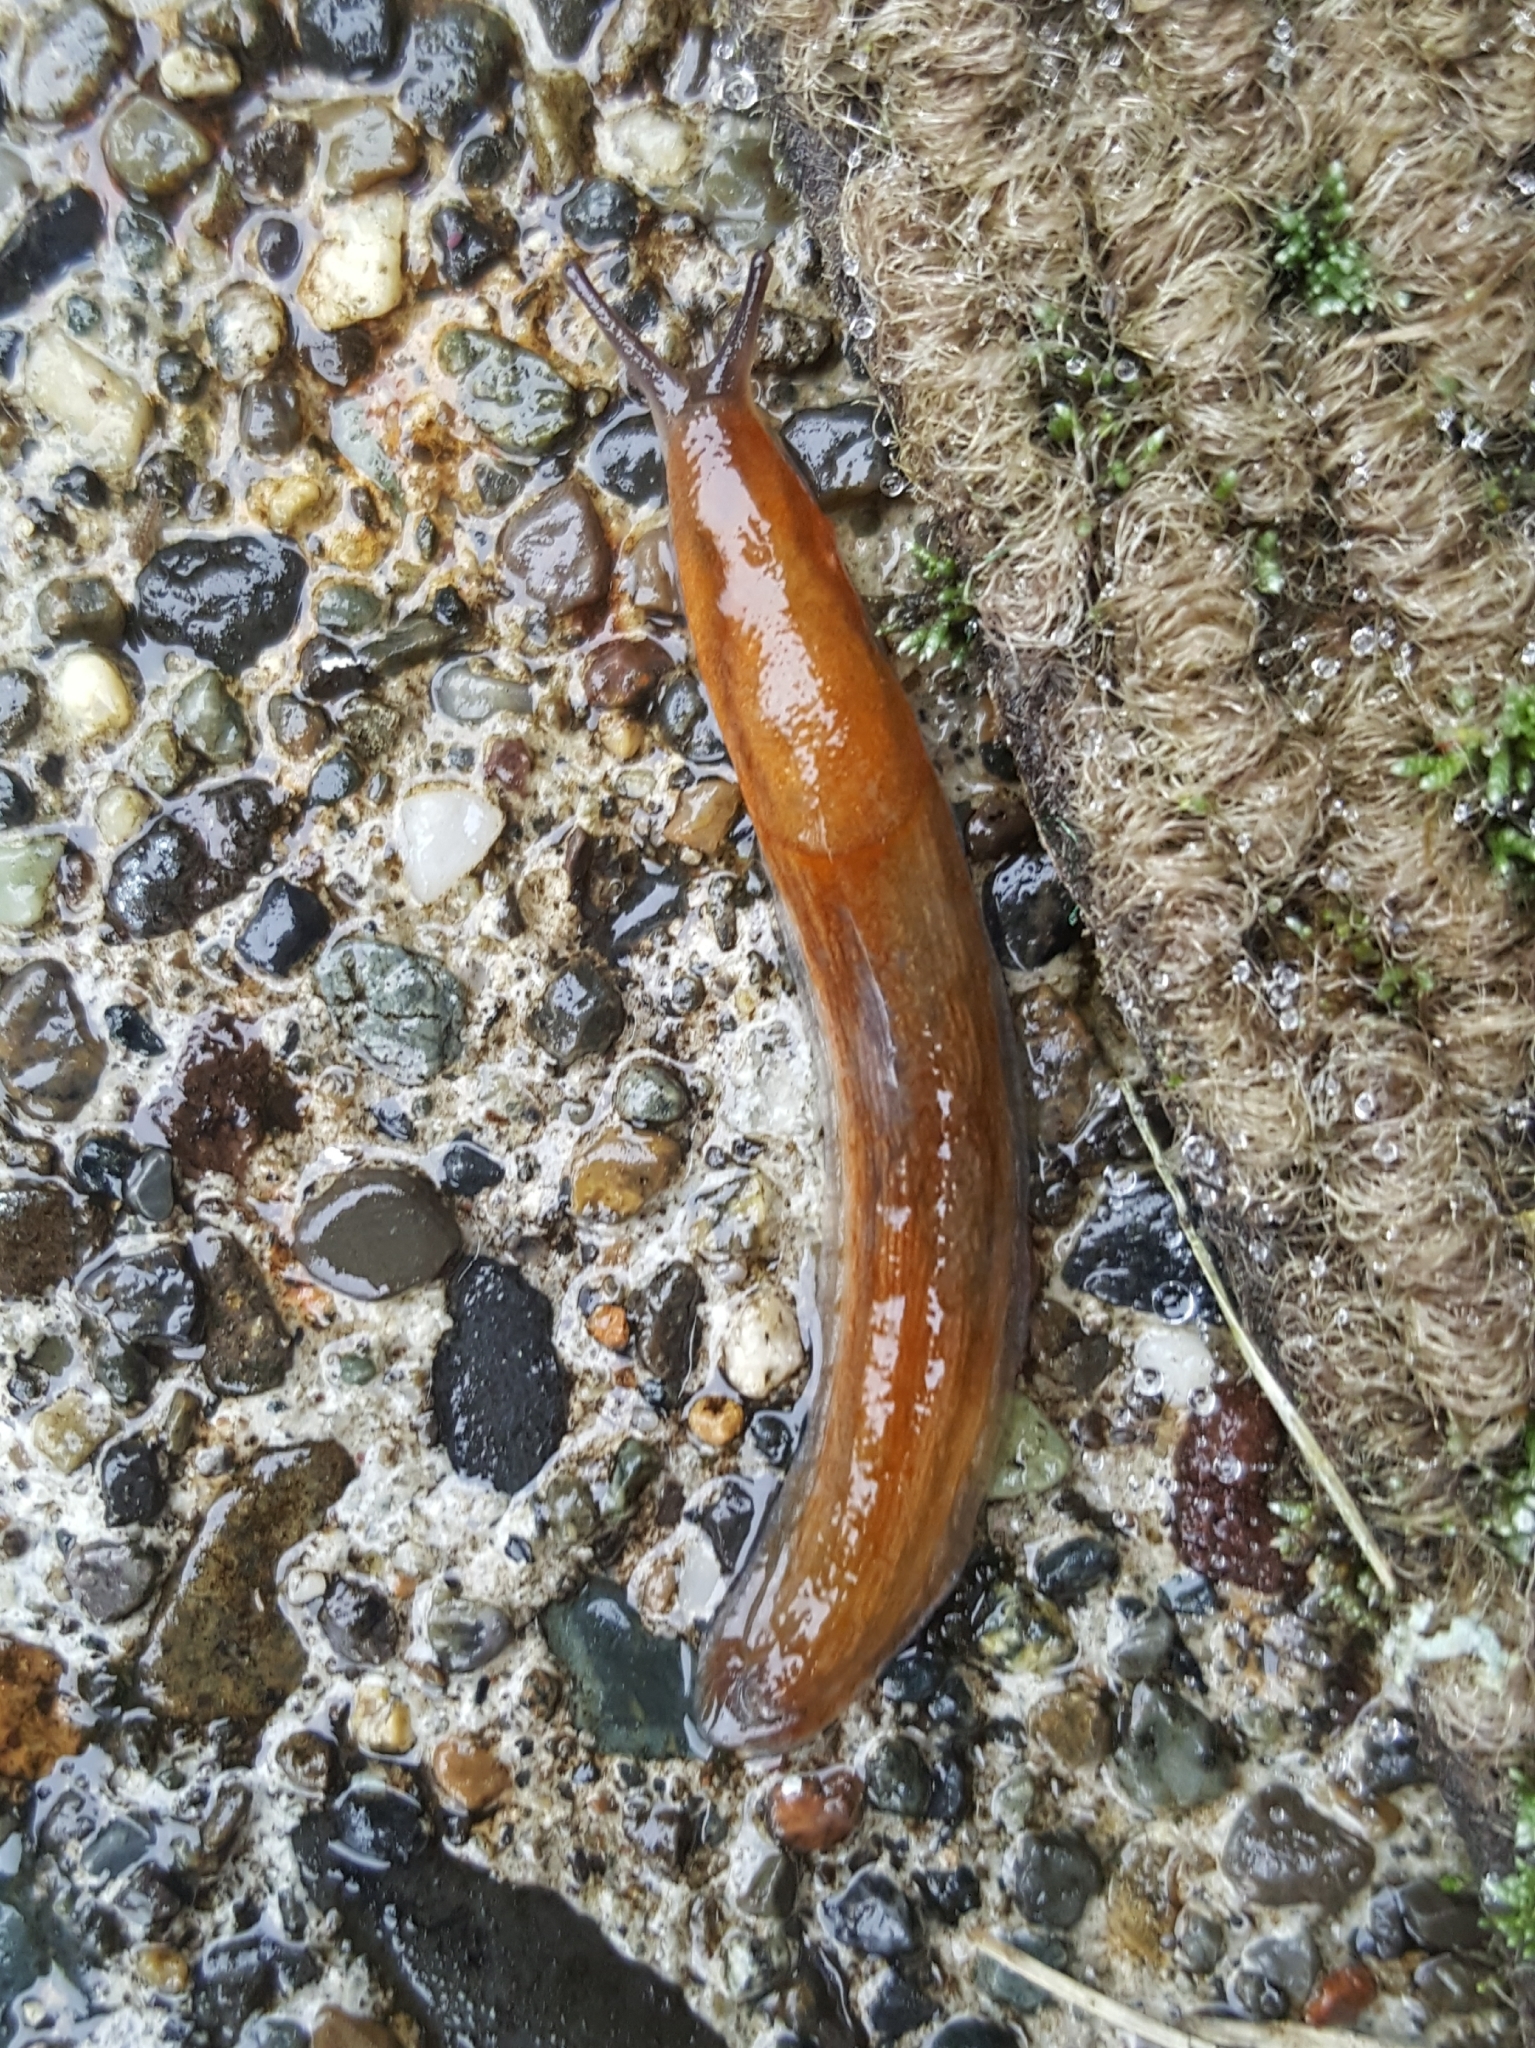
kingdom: Animalia
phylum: Mollusca
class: Gastropoda
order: Stylommatophora
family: Arionidae
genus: Arion
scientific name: Arion rufus
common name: Chocolate arion
